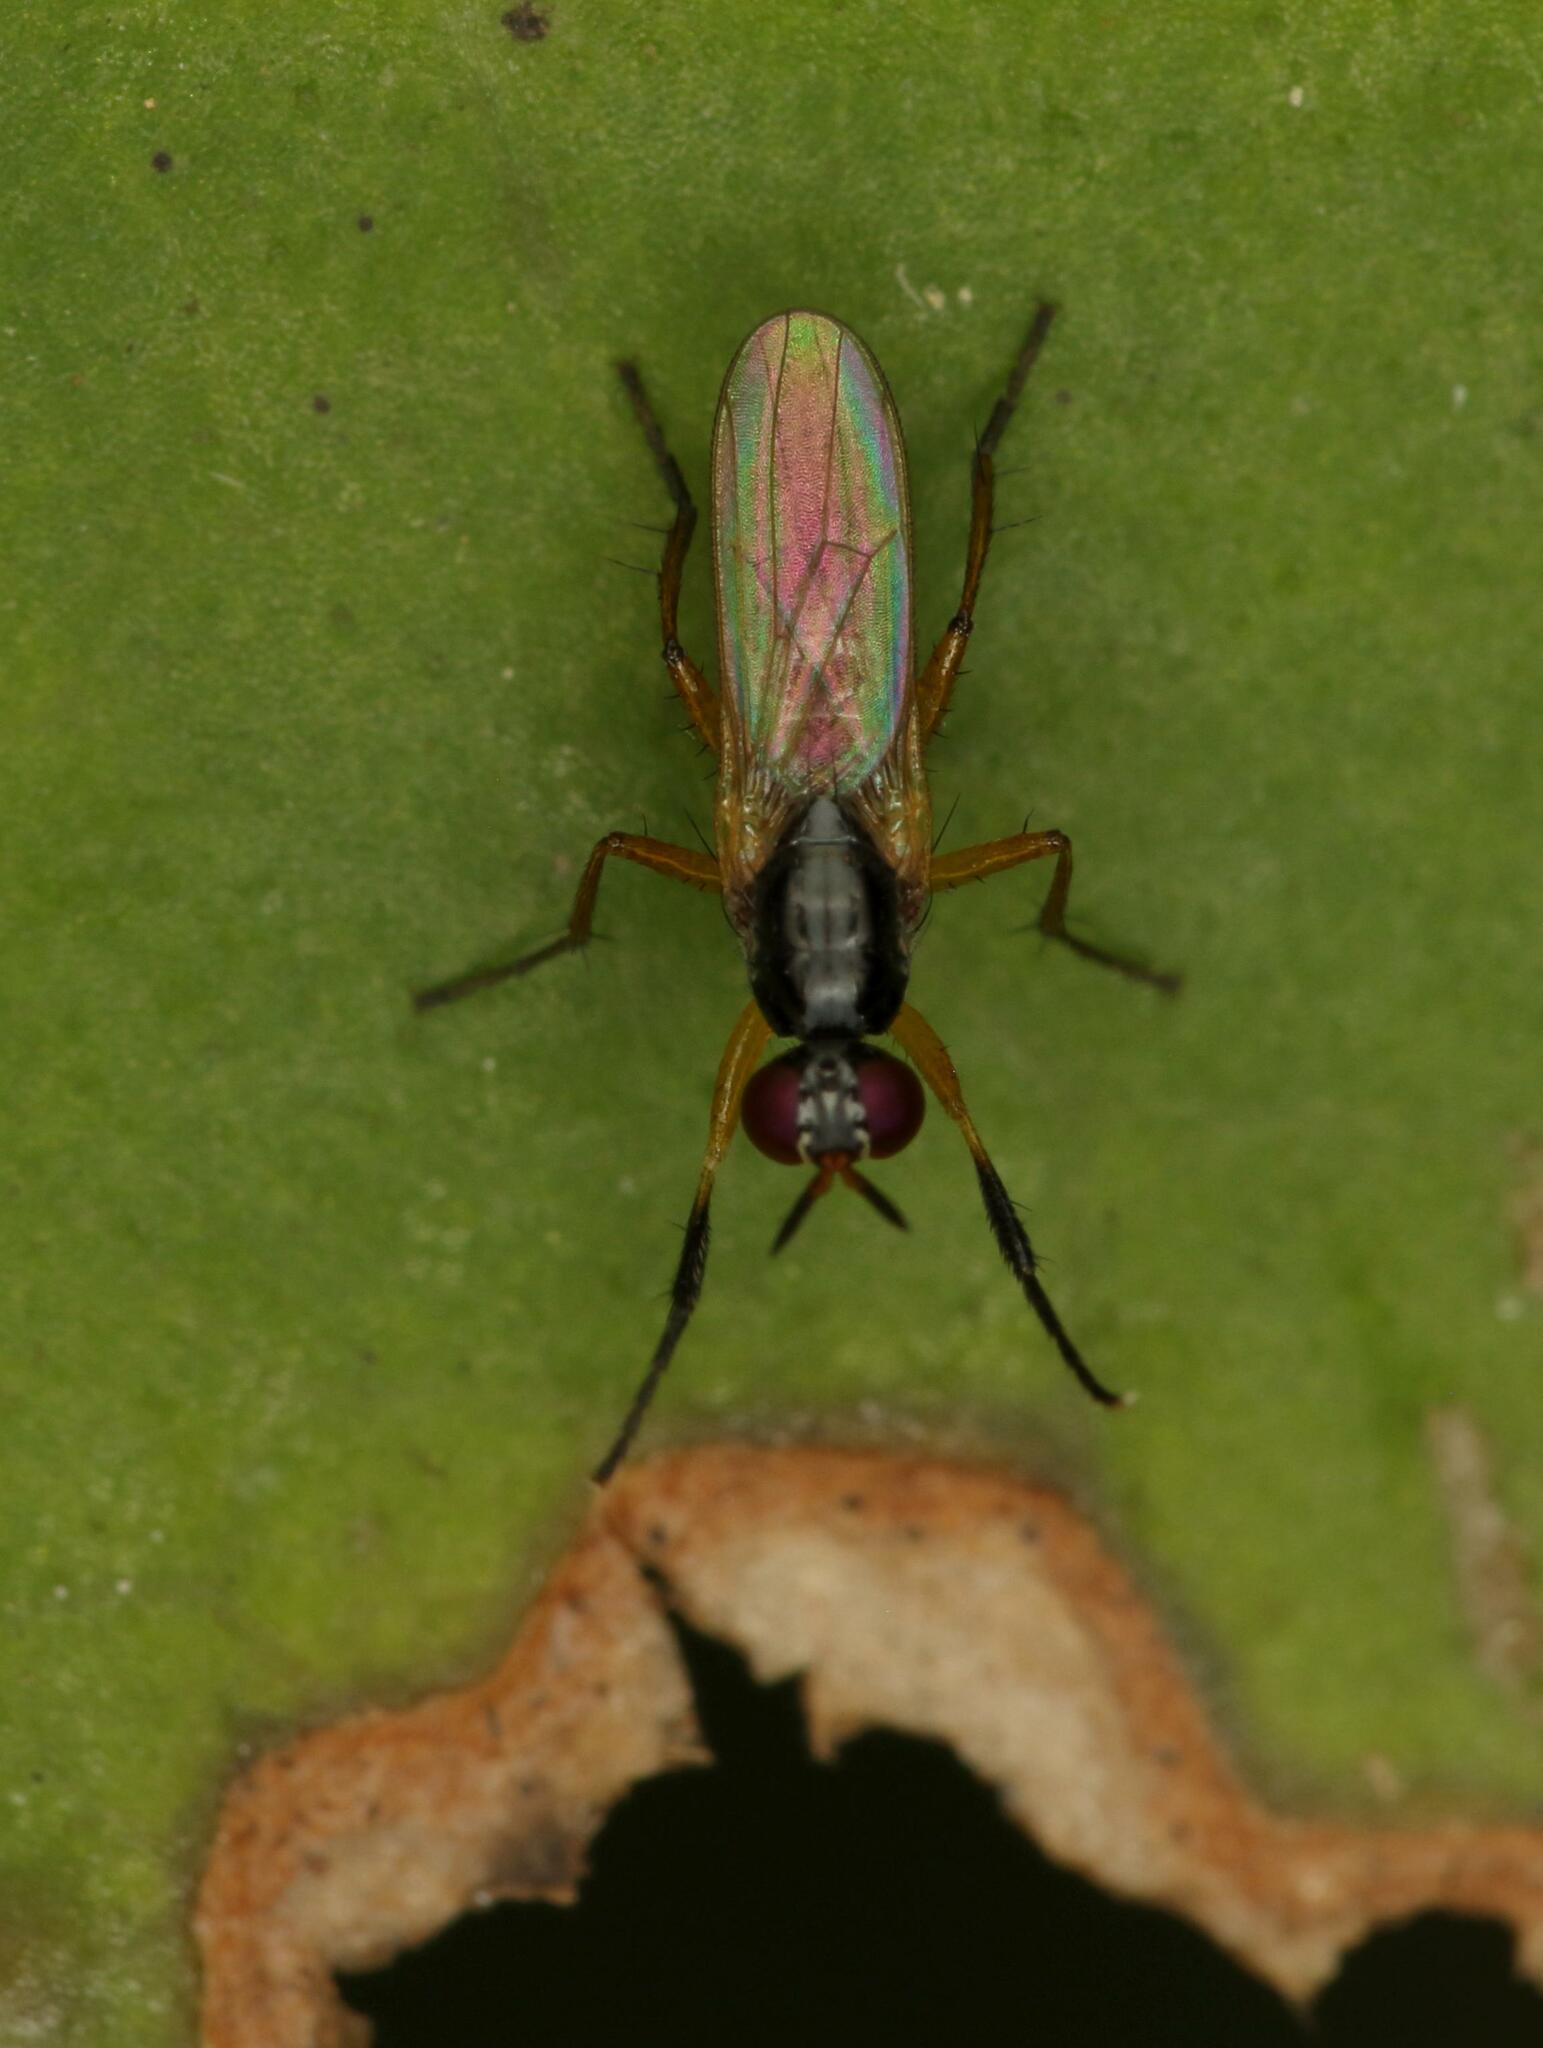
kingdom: Animalia
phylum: Arthropoda
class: Insecta
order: Diptera
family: Muscidae
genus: Anaphalantus
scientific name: Anaphalantus longicornis
